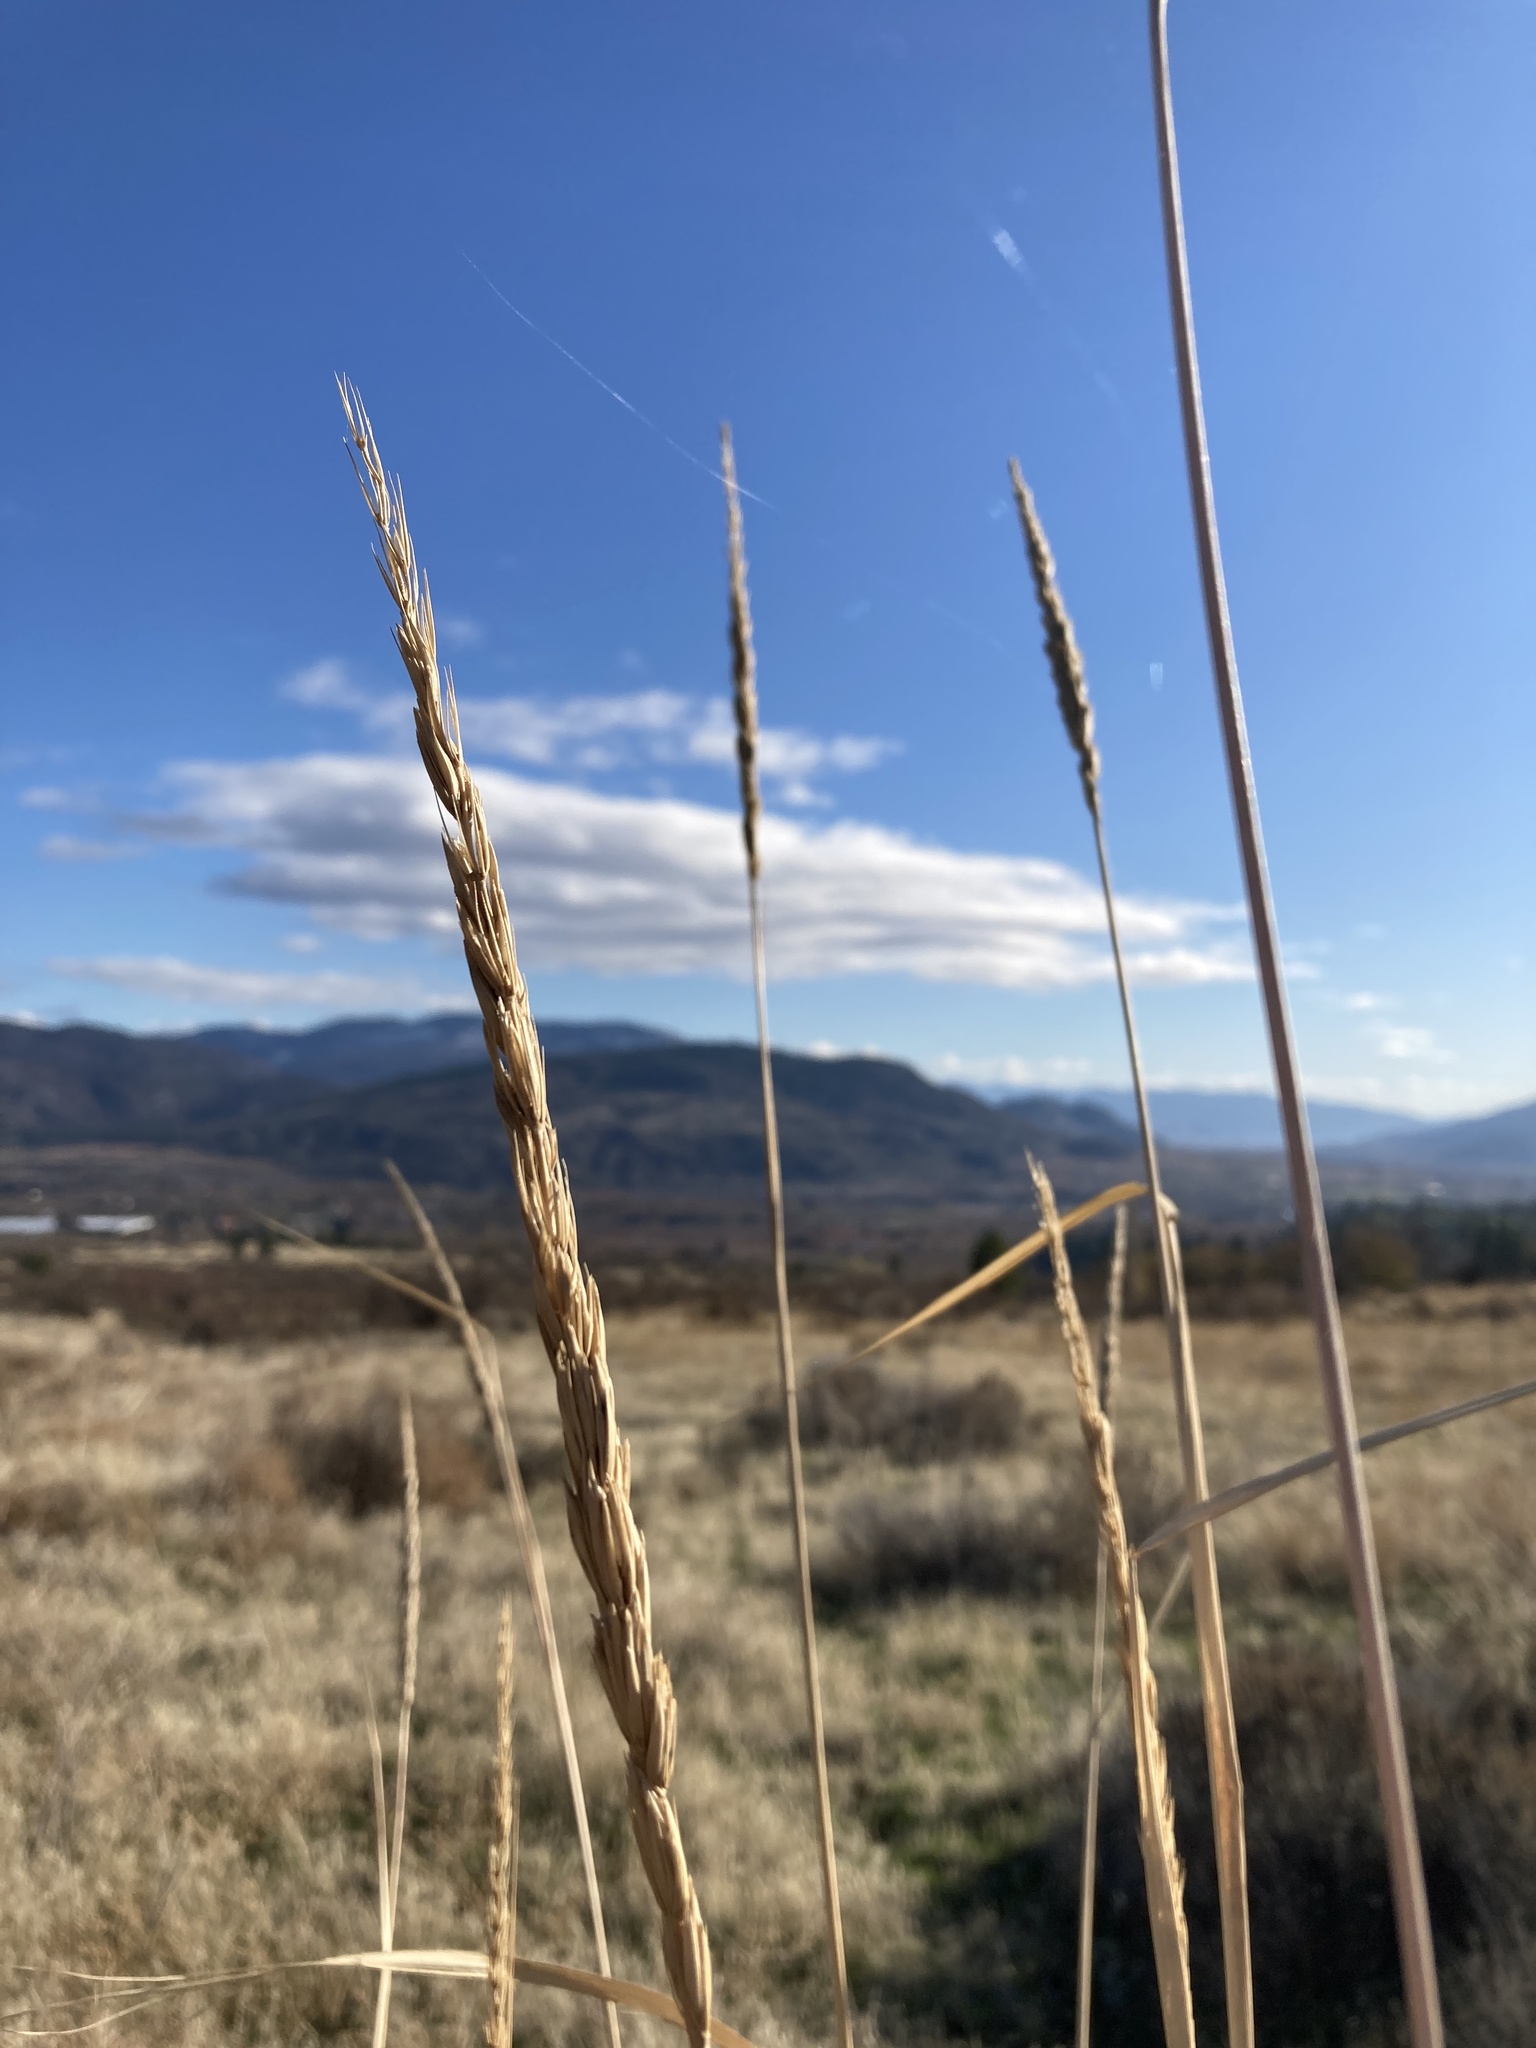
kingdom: Plantae
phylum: Tracheophyta
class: Liliopsida
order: Poales
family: Poaceae
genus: Leymus
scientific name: Leymus cinereus
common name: Basin wild rye
